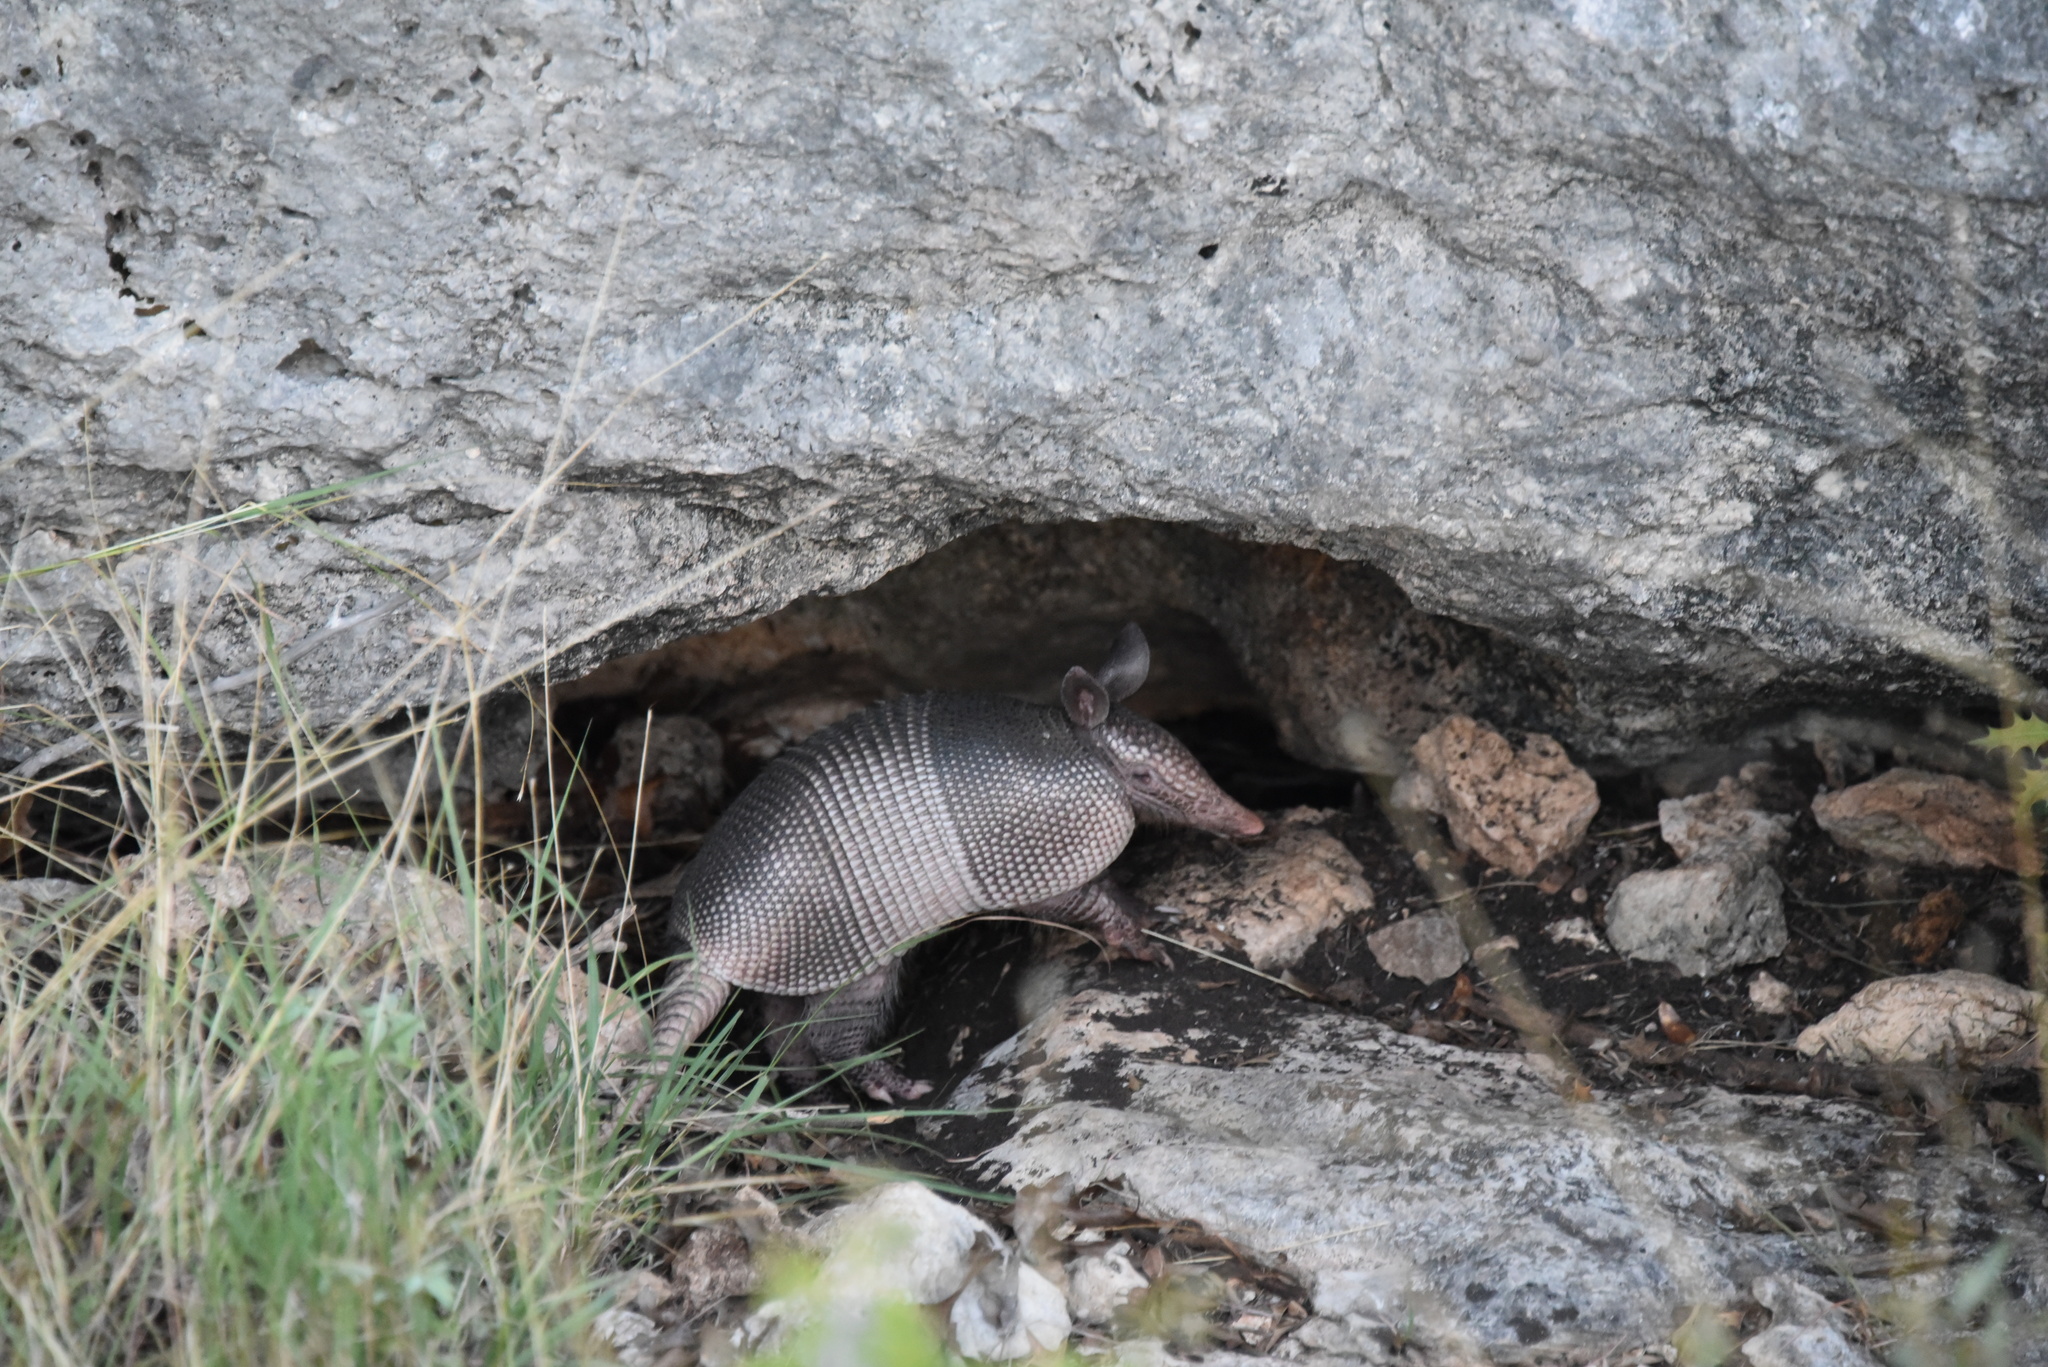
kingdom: Animalia
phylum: Chordata
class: Mammalia
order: Cingulata
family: Dasypodidae
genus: Dasypus
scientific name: Dasypus novemcinctus
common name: Nine-banded armadillo
